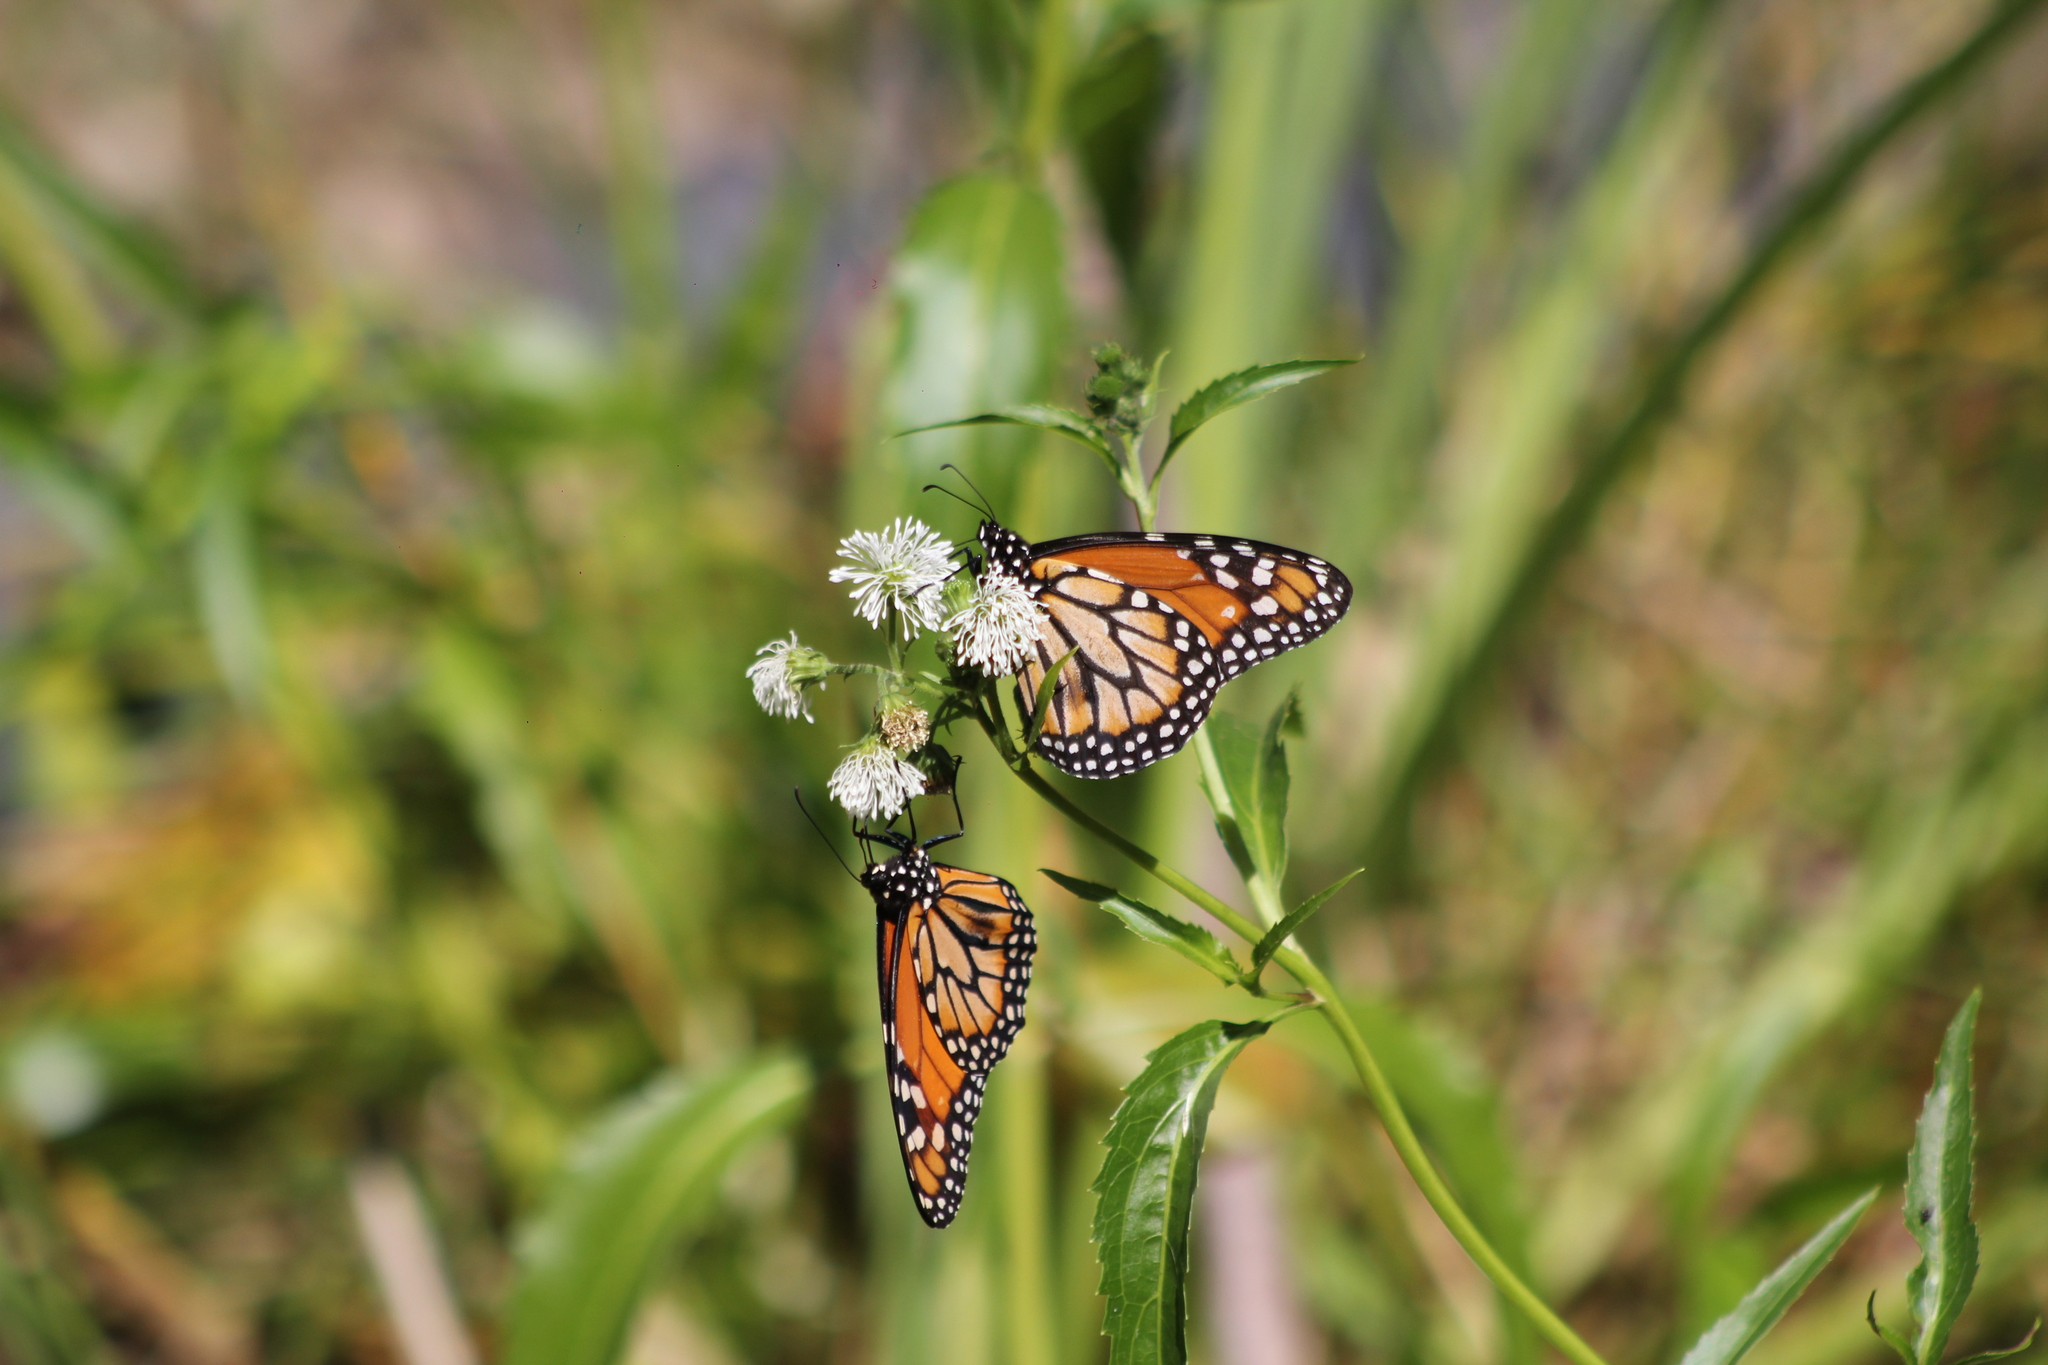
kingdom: Animalia
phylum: Arthropoda
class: Insecta
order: Lepidoptera
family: Nymphalidae
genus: Danaus
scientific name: Danaus erippus
